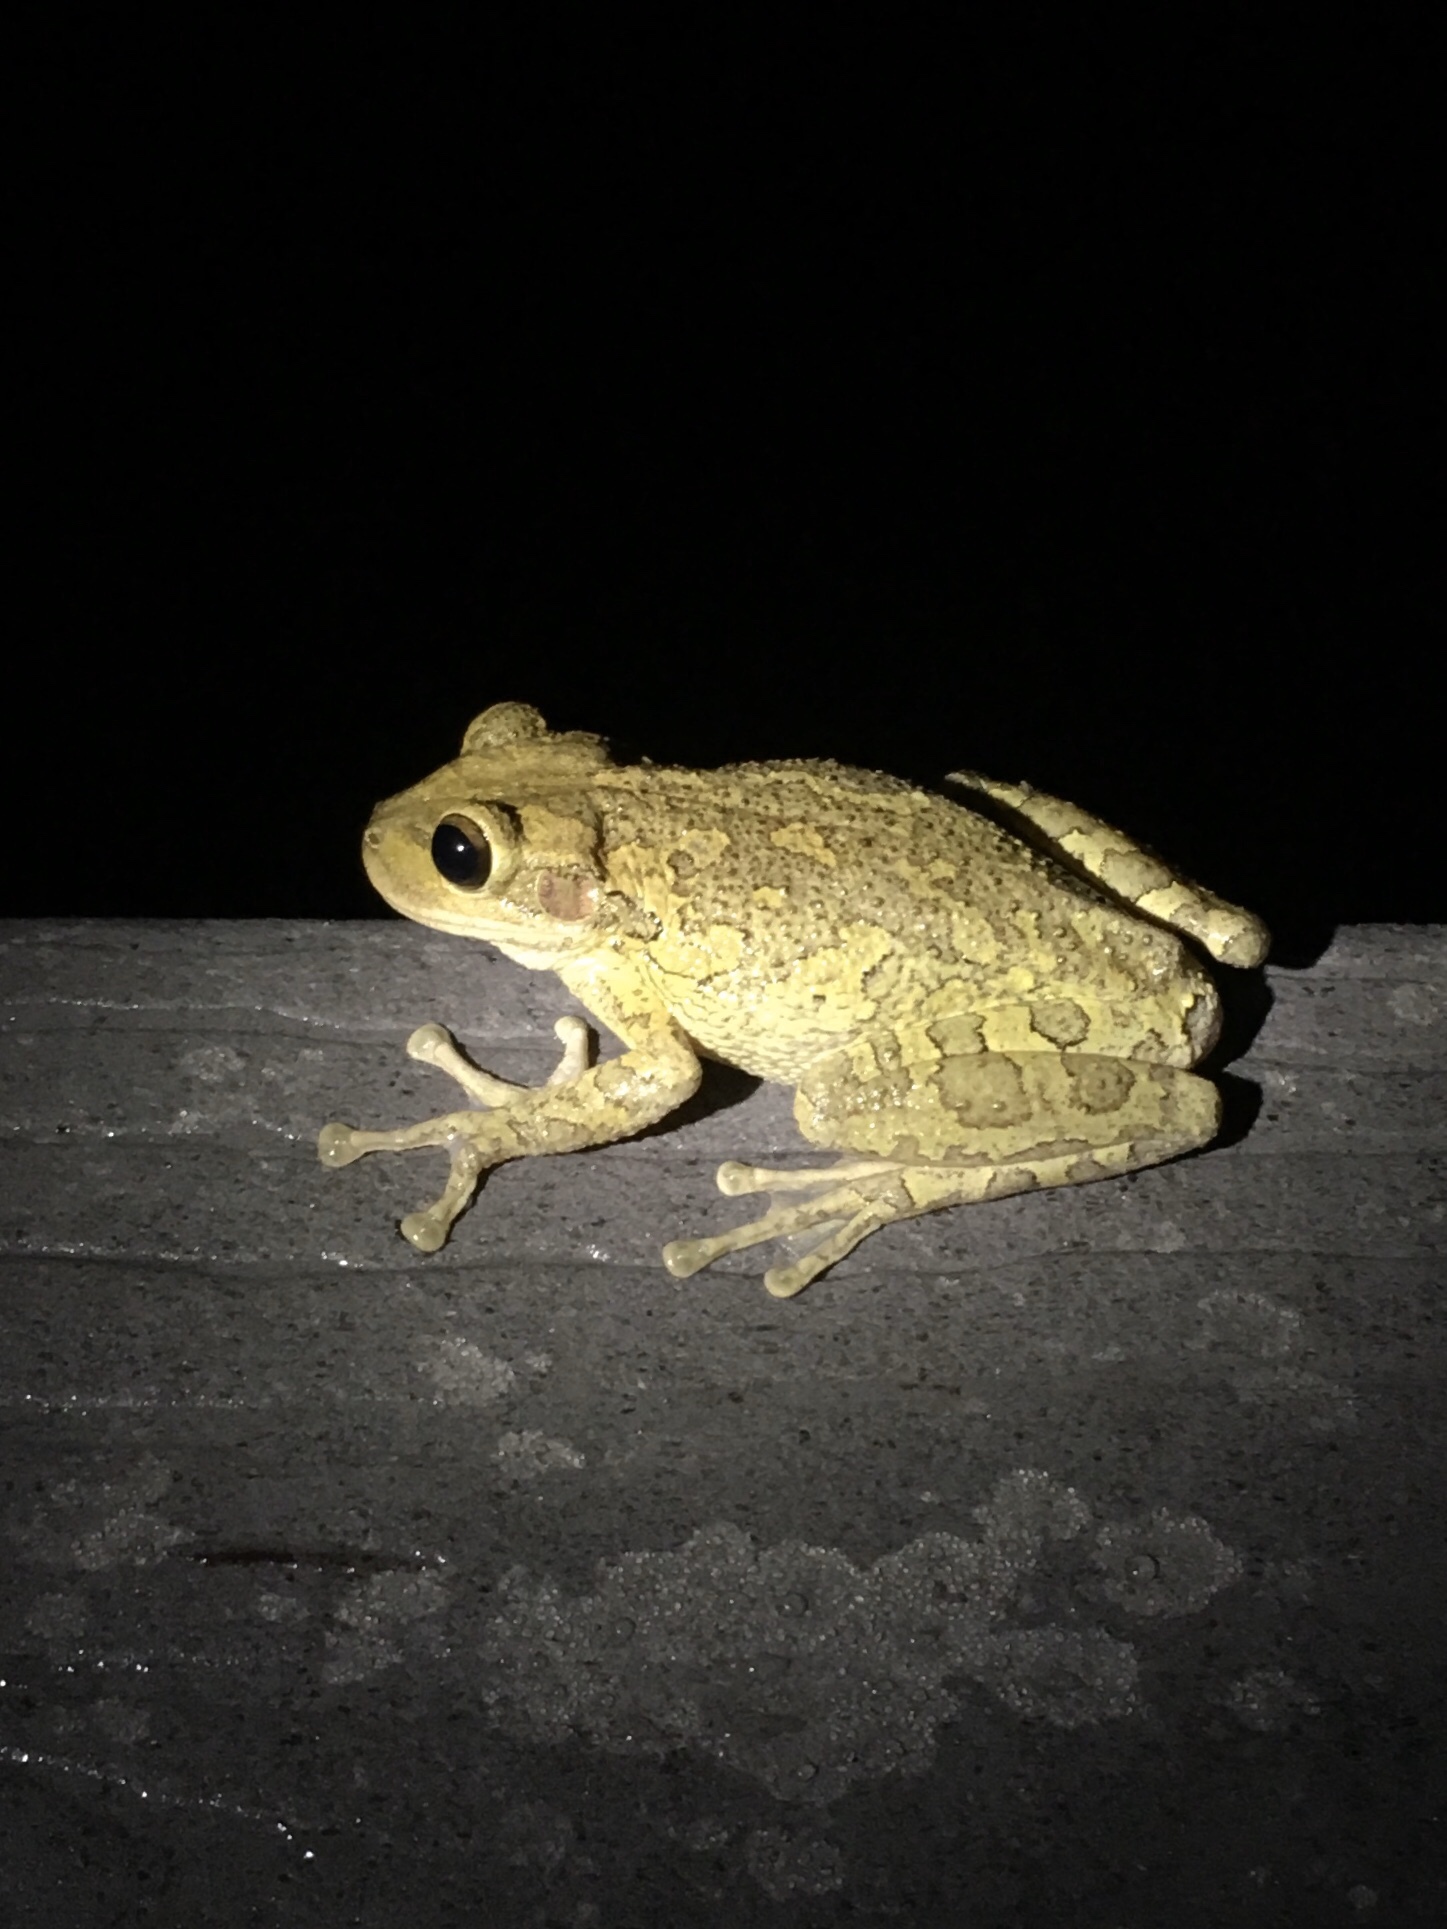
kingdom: Animalia
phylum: Chordata
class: Amphibia
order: Anura
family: Hylidae
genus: Osteopilus
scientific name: Osteopilus septentrionalis
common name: Cuban treefrog
